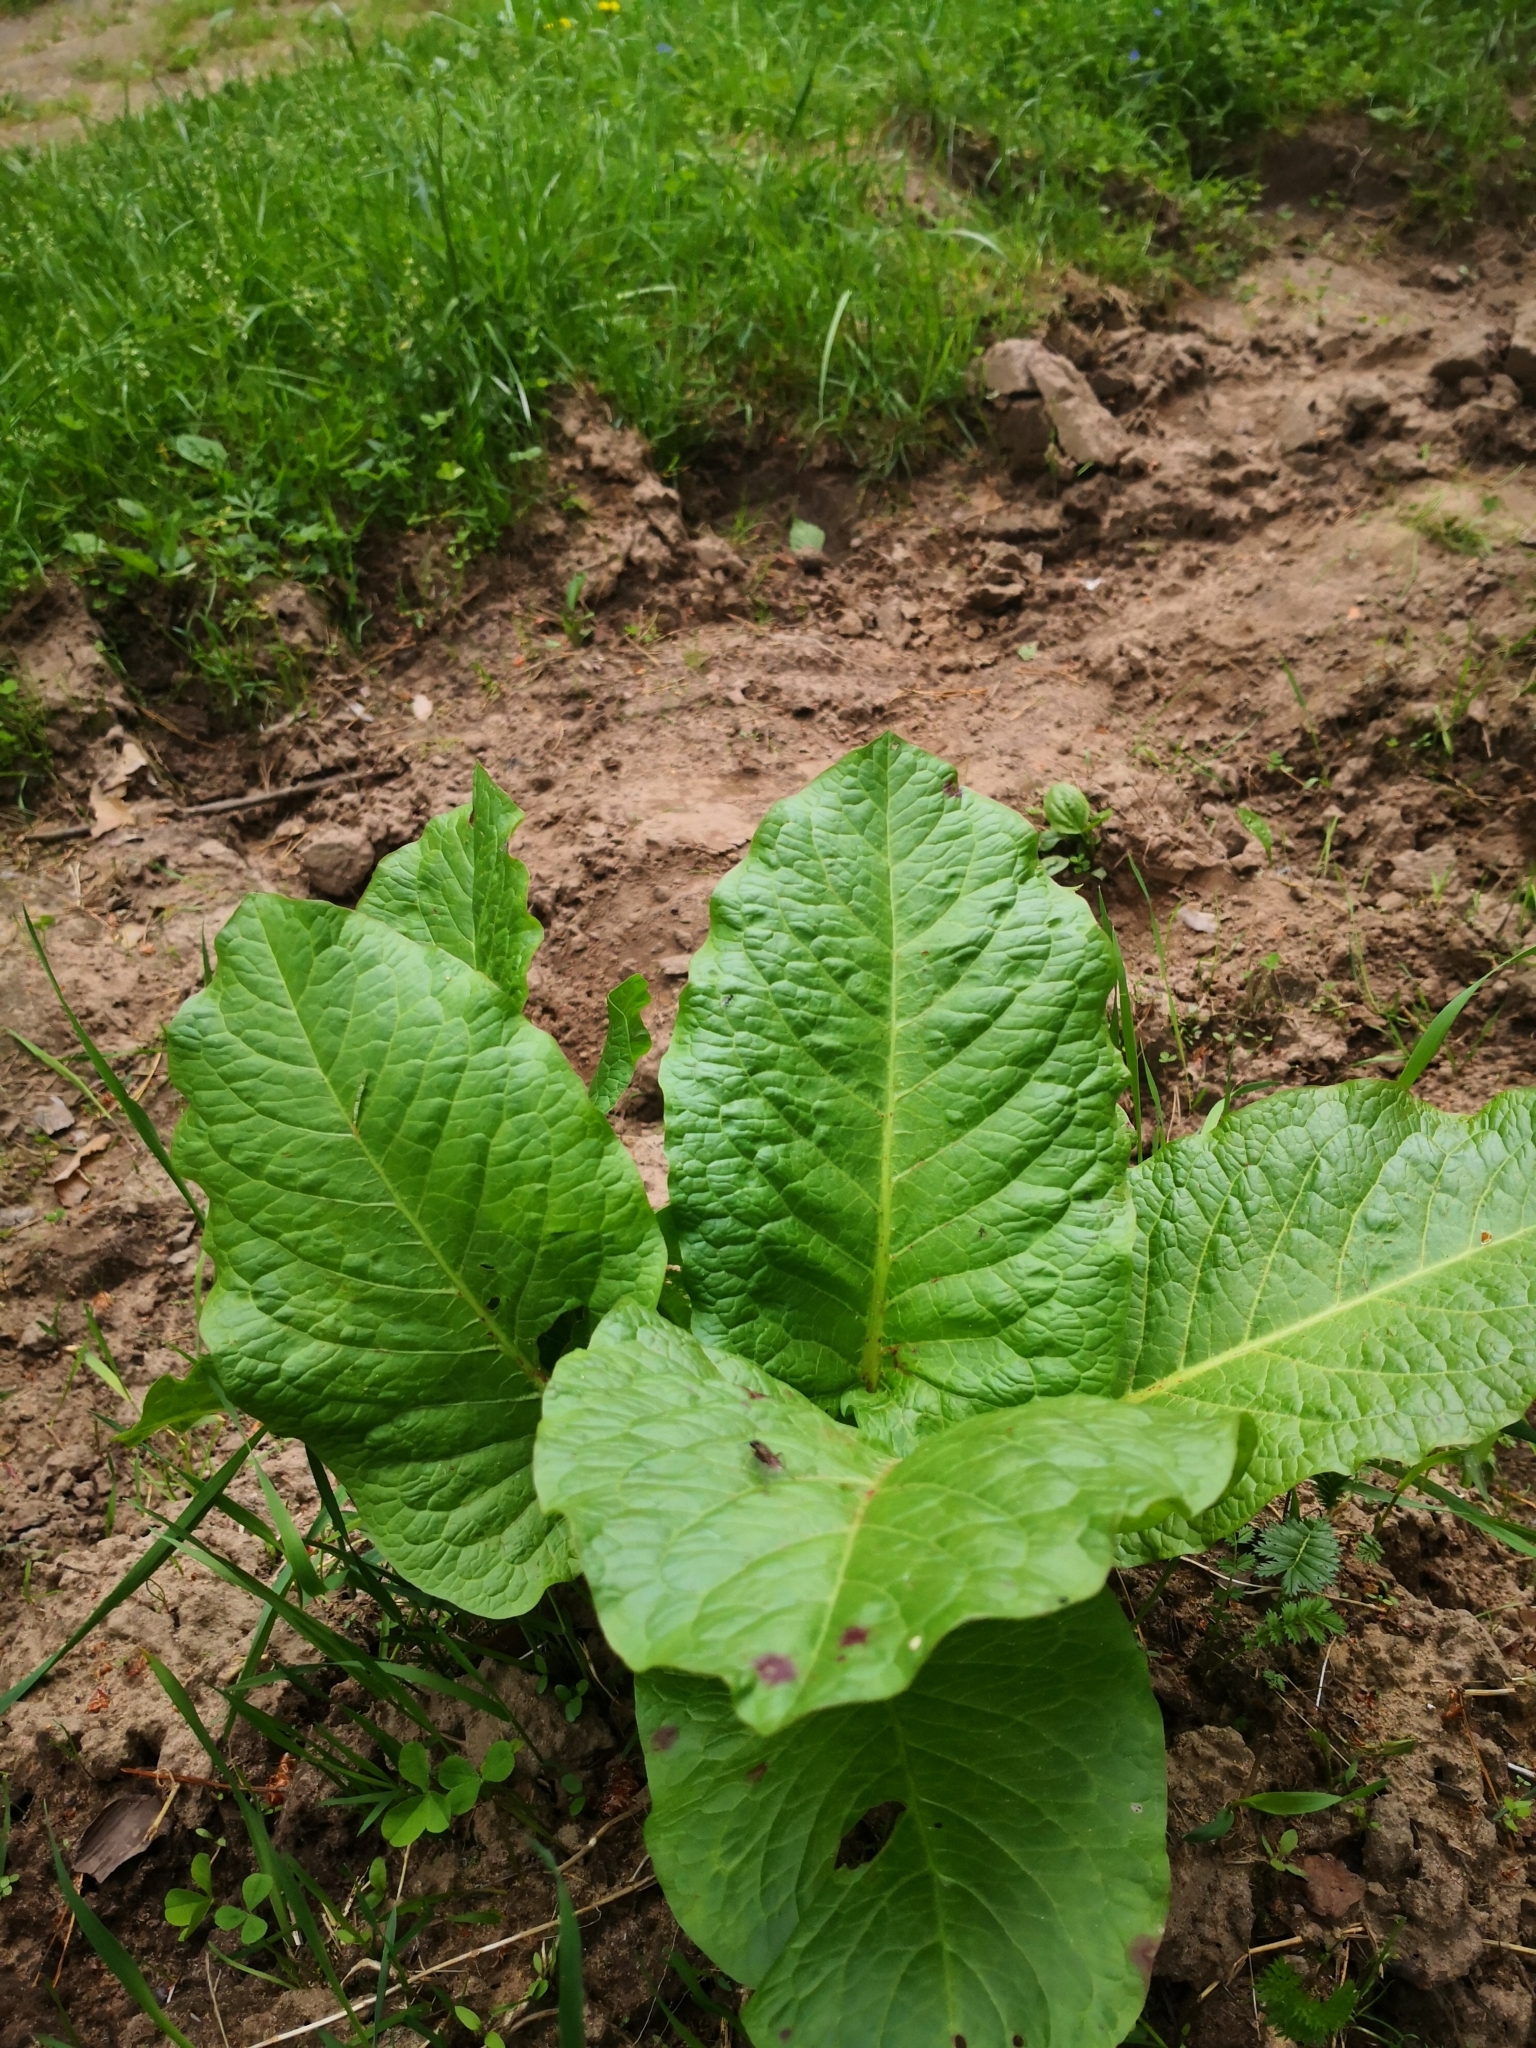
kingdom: Plantae
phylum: Tracheophyta
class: Magnoliopsida
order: Caryophyllales
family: Polygonaceae
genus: Rumex
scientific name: Rumex obtusifolius
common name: Bitter dock
